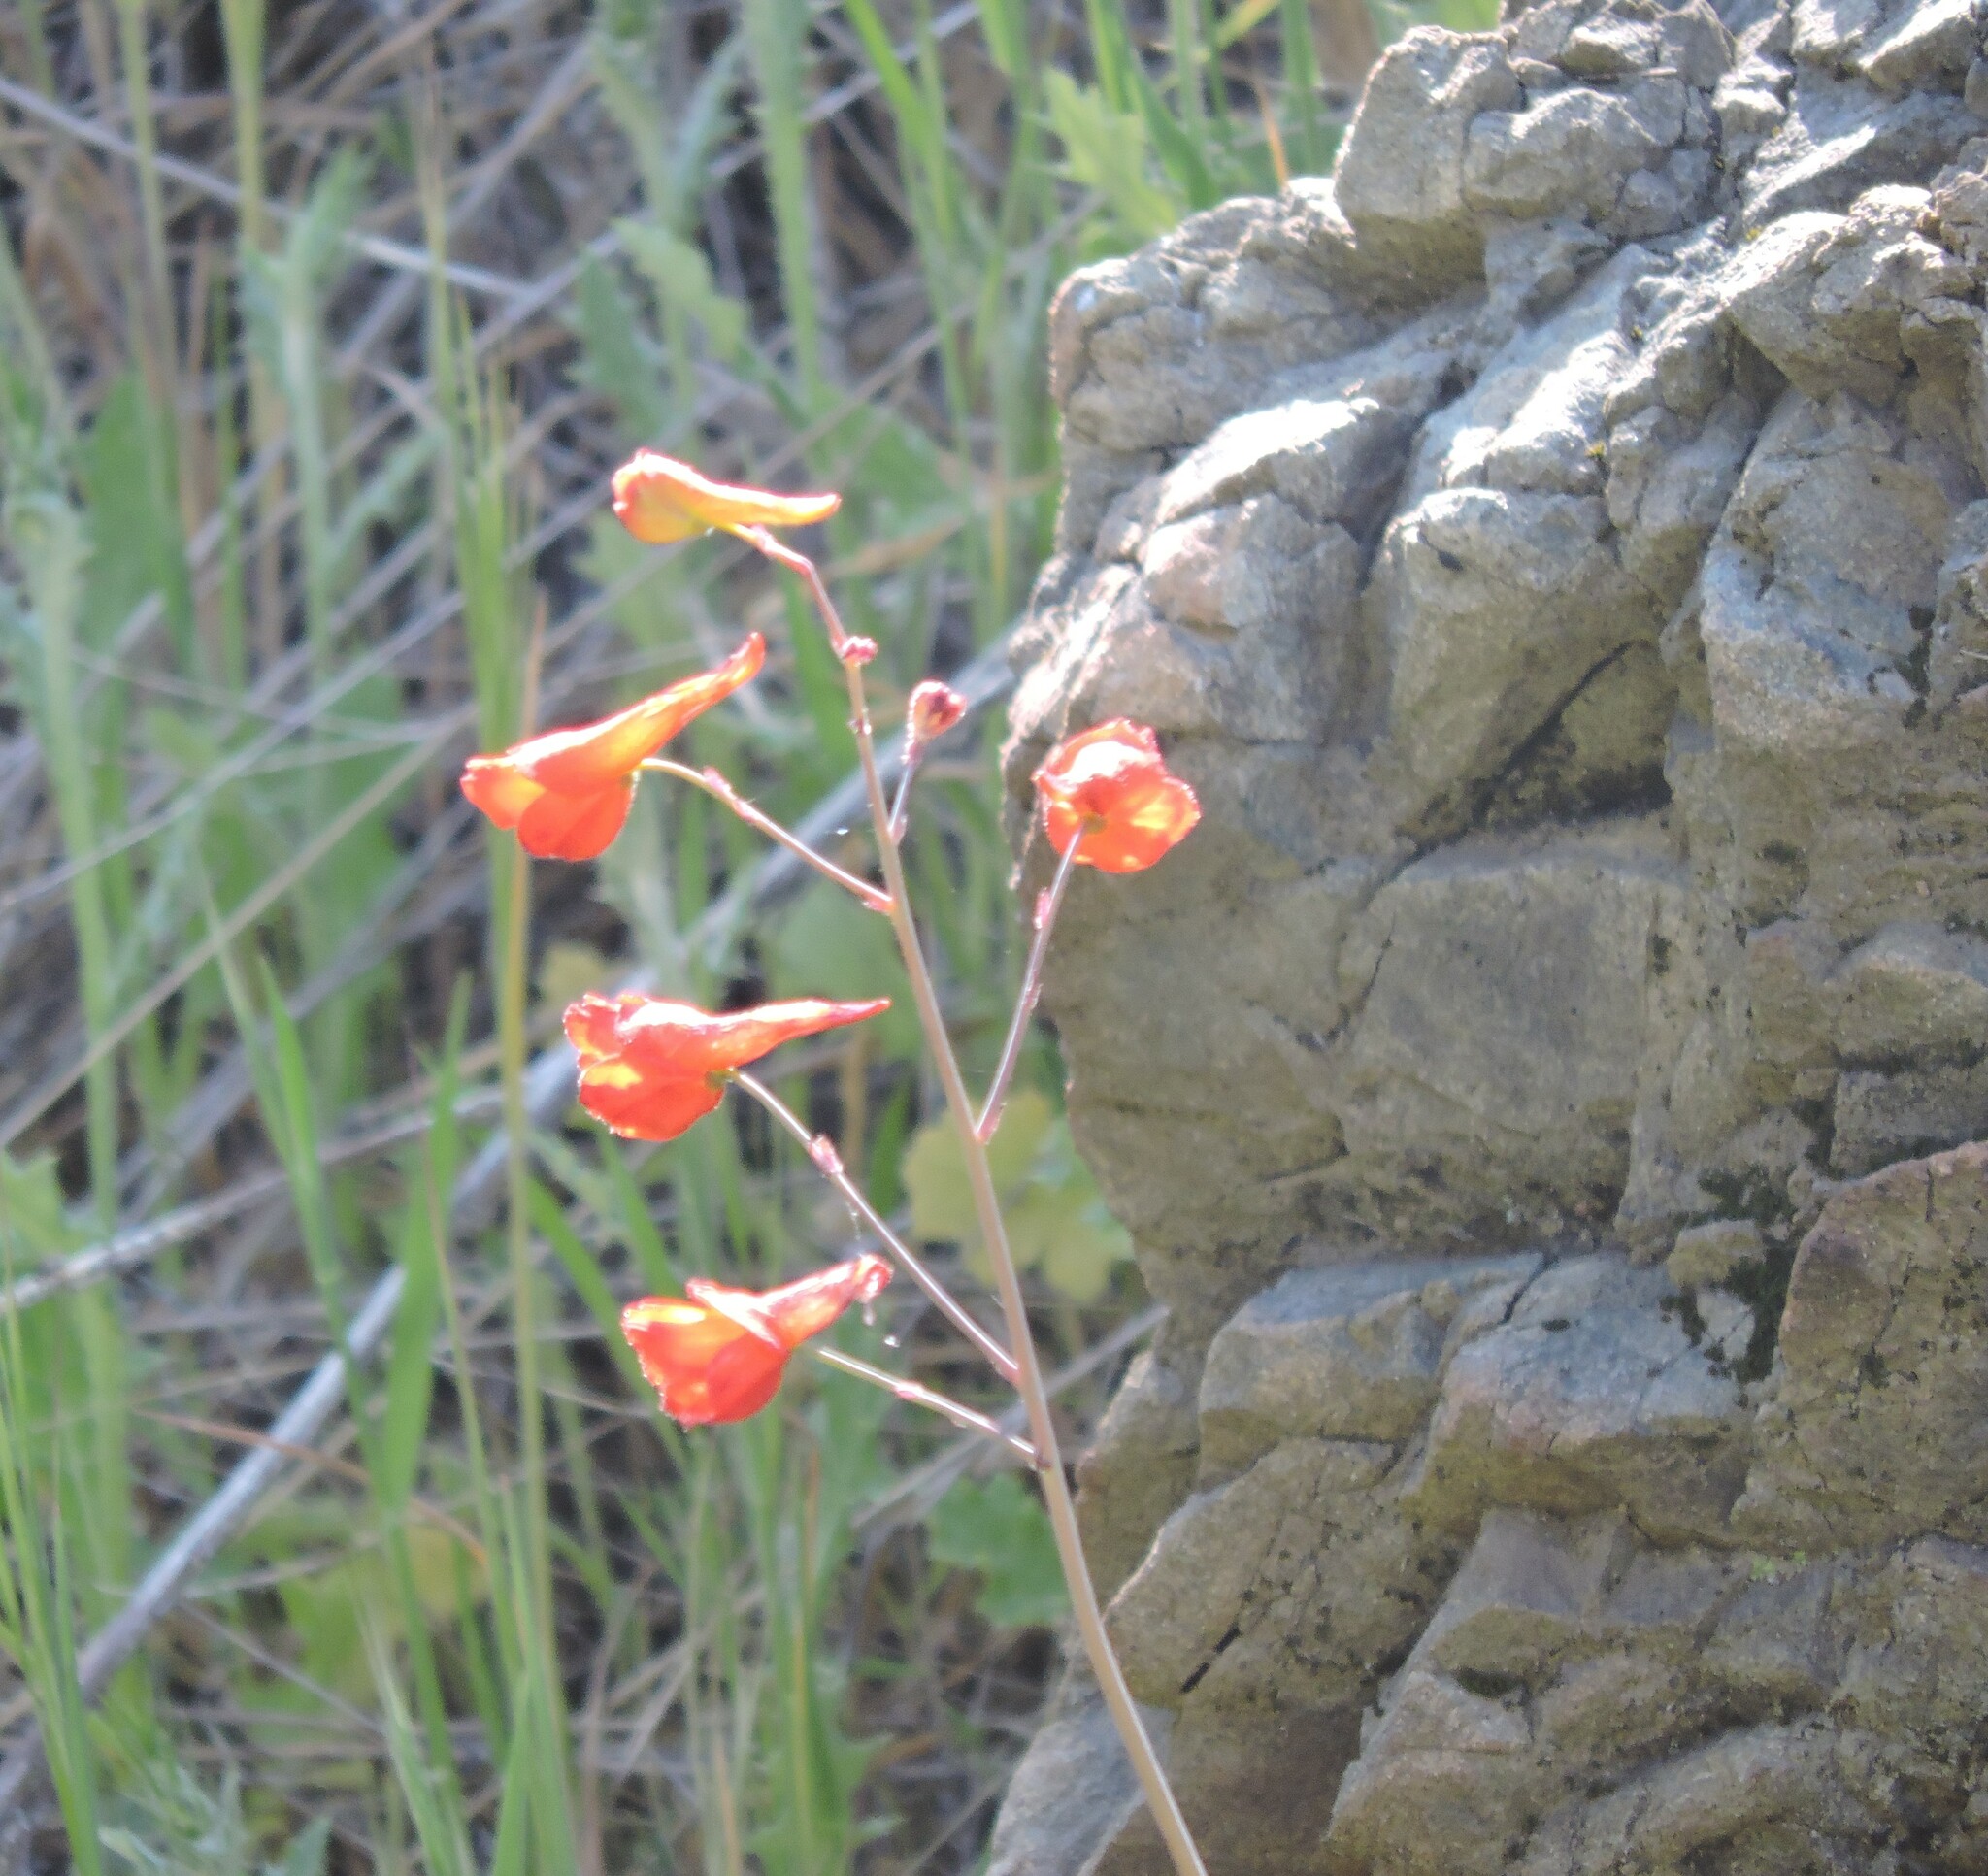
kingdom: Plantae
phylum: Tracheophyta
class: Magnoliopsida
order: Ranunculales
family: Ranunculaceae
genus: Delphinium
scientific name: Delphinium nudicaule
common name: Red larkspur
